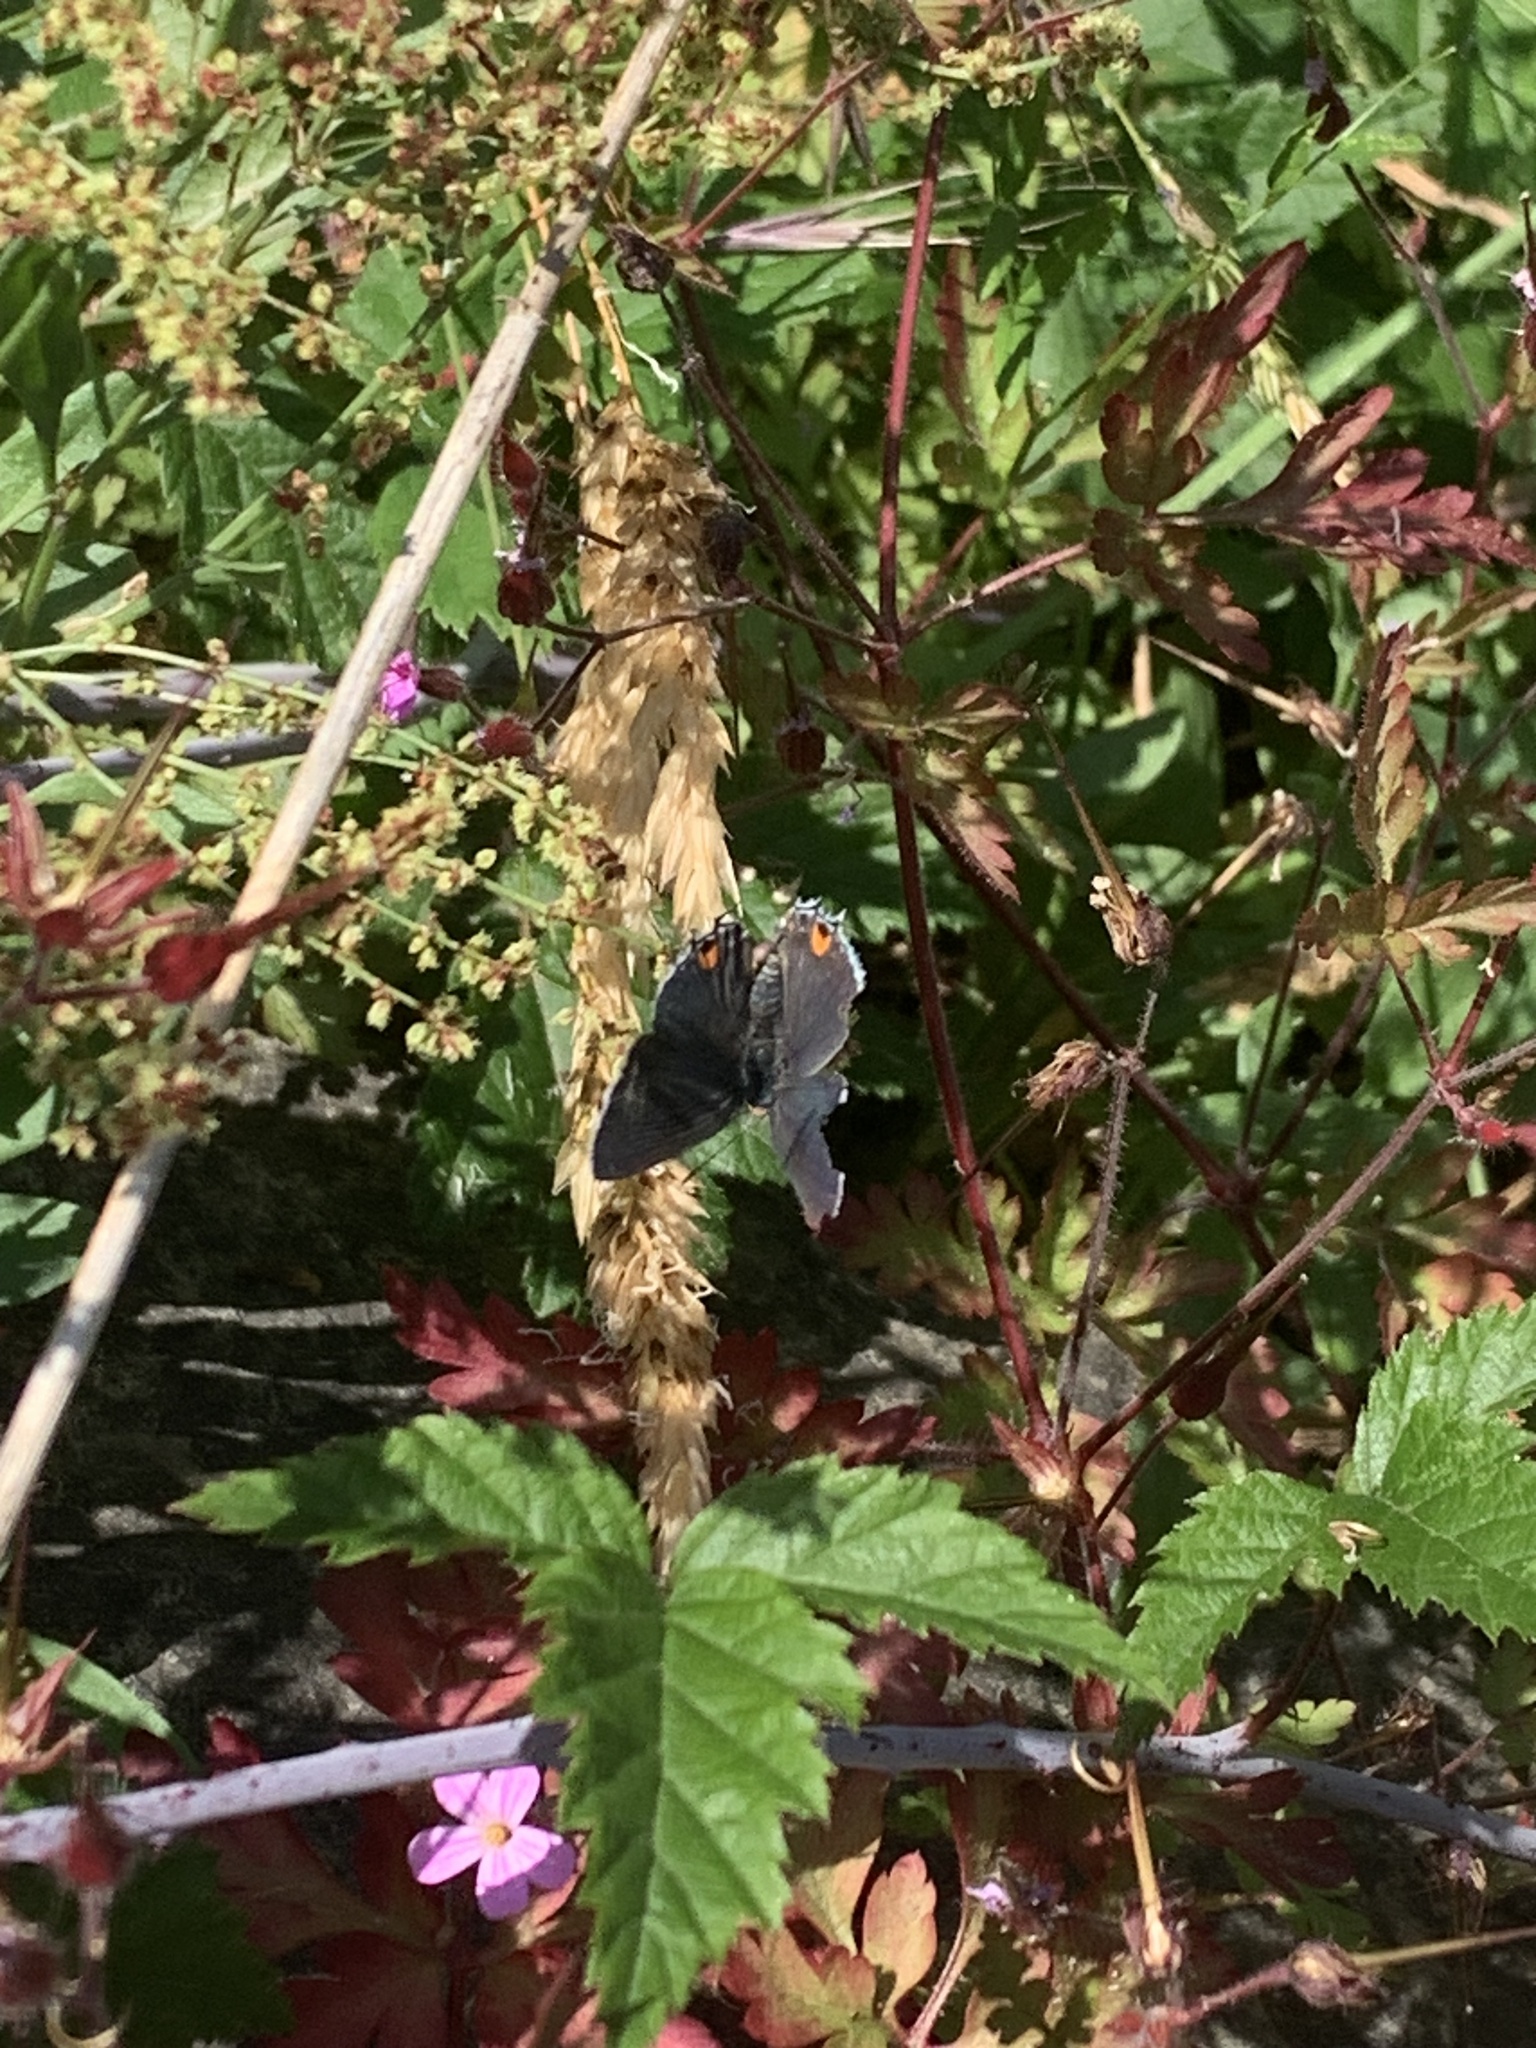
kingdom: Animalia
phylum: Arthropoda
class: Insecta
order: Lepidoptera
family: Lycaenidae
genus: Strymon
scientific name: Strymon melinus
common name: Gray hairstreak
